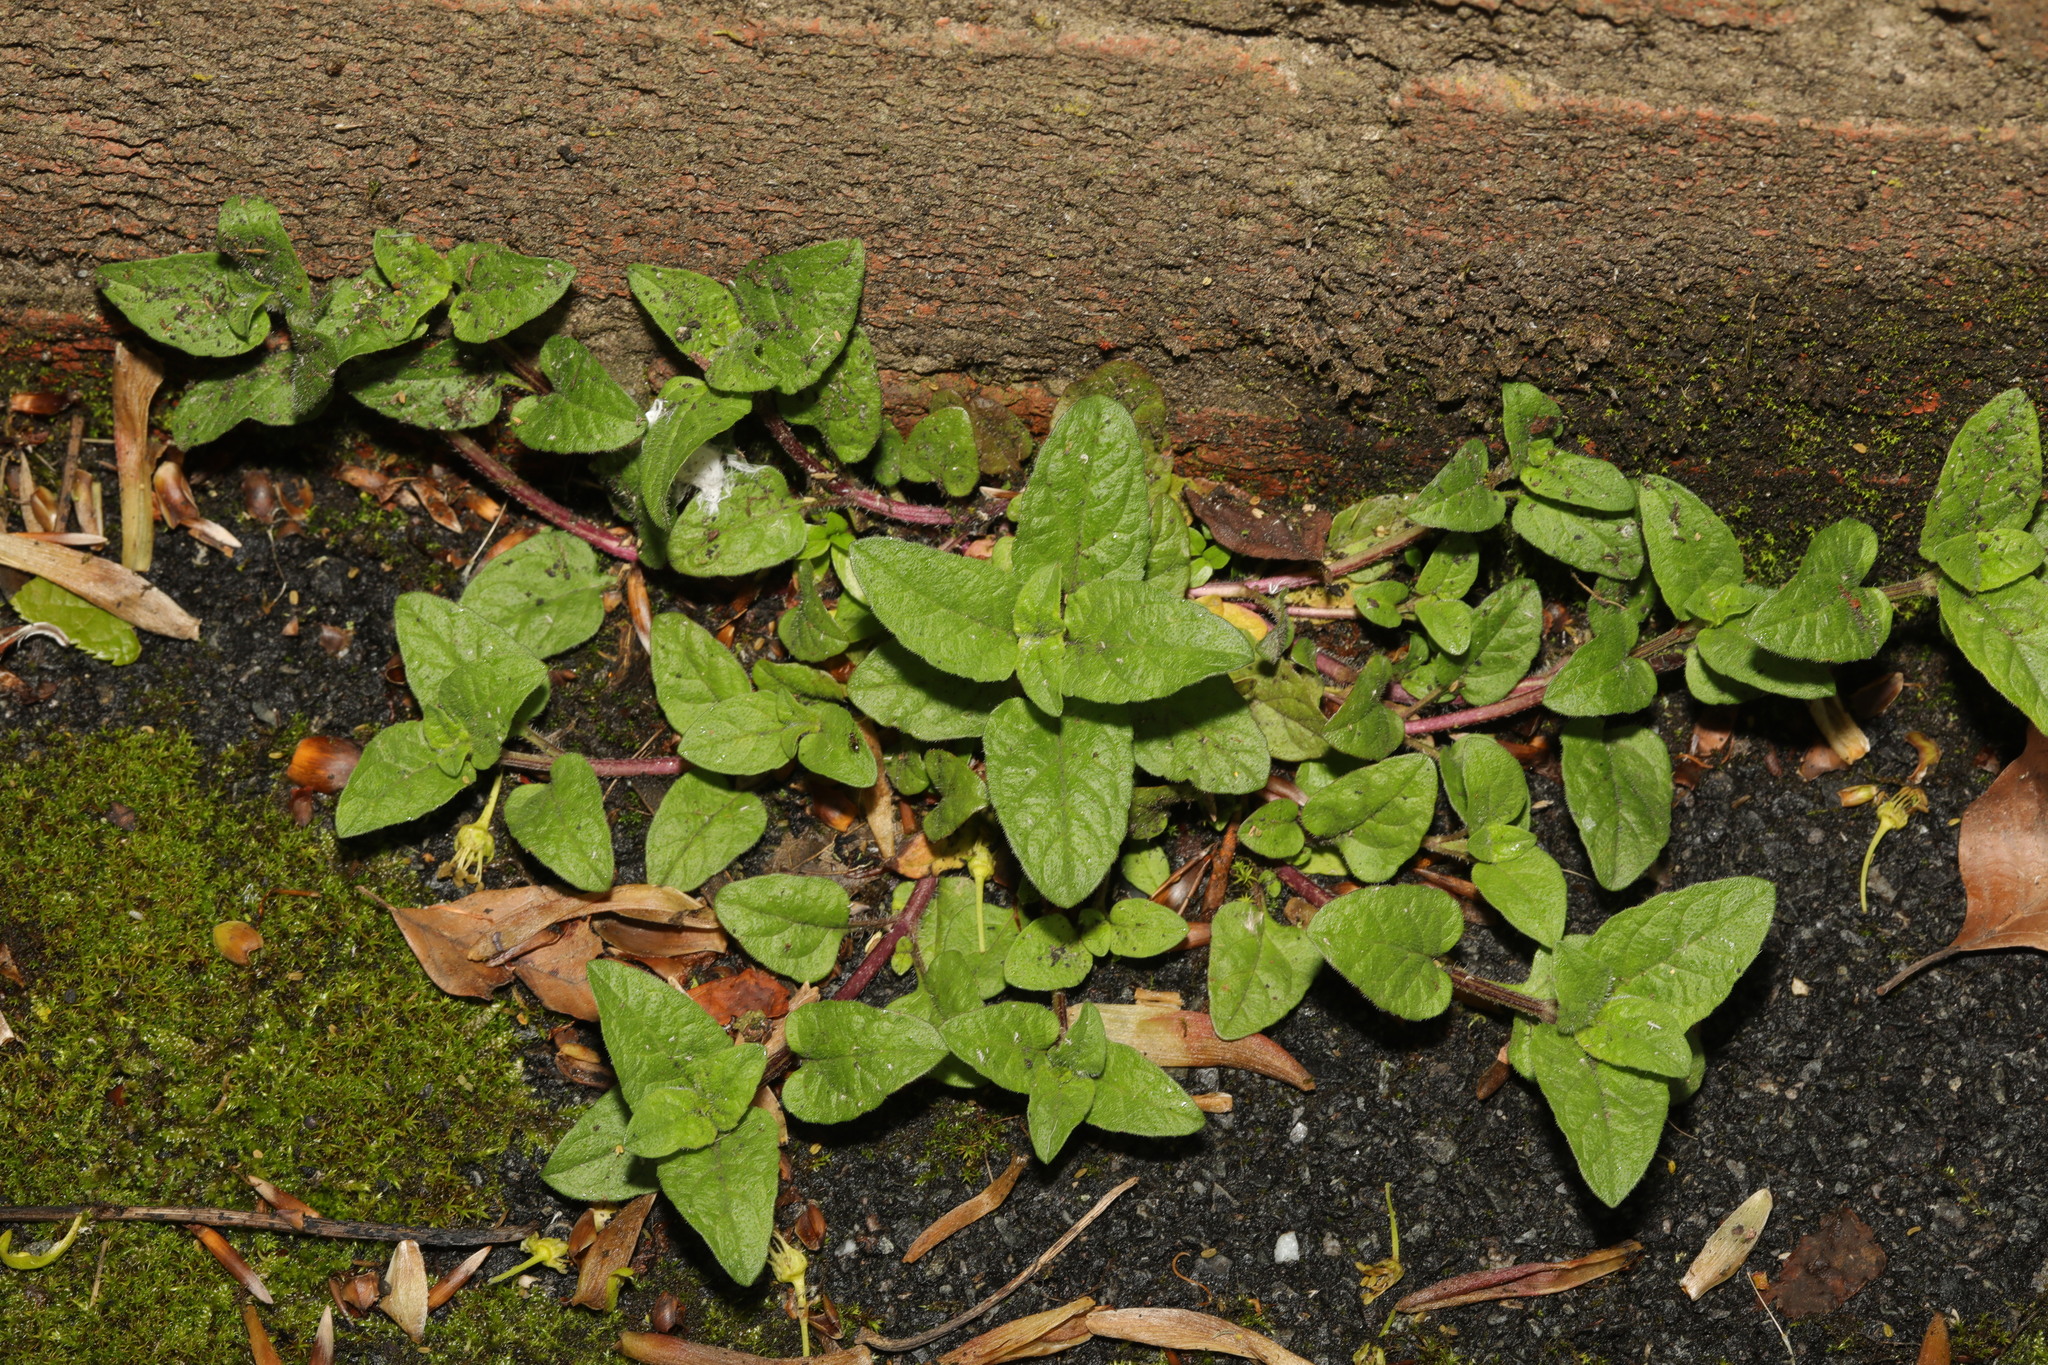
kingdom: Plantae
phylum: Tracheophyta
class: Magnoliopsida
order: Lamiales
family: Lamiaceae
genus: Prunella
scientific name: Prunella vulgaris
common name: Heal-all
